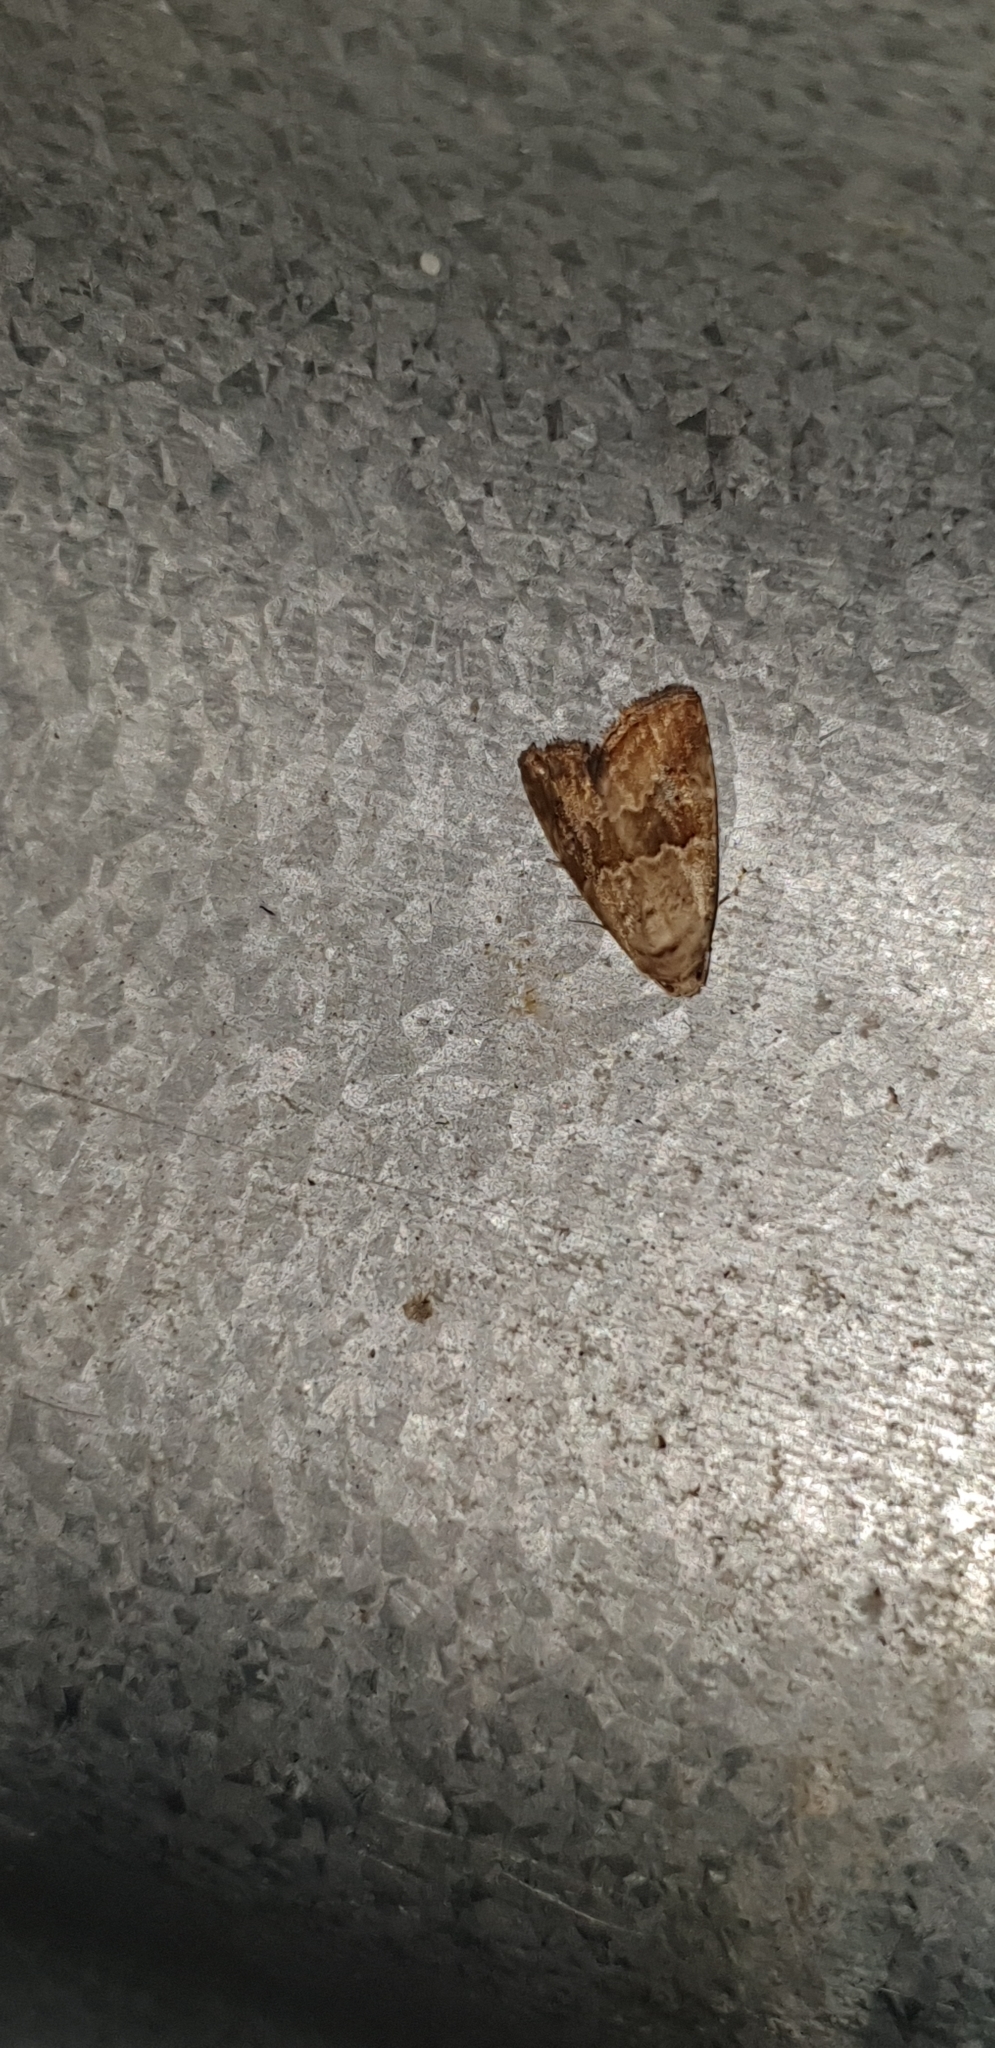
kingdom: Animalia
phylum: Arthropoda
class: Insecta
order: Lepidoptera
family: Noctuidae
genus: Maliattha
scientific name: Maliattha amorpha
